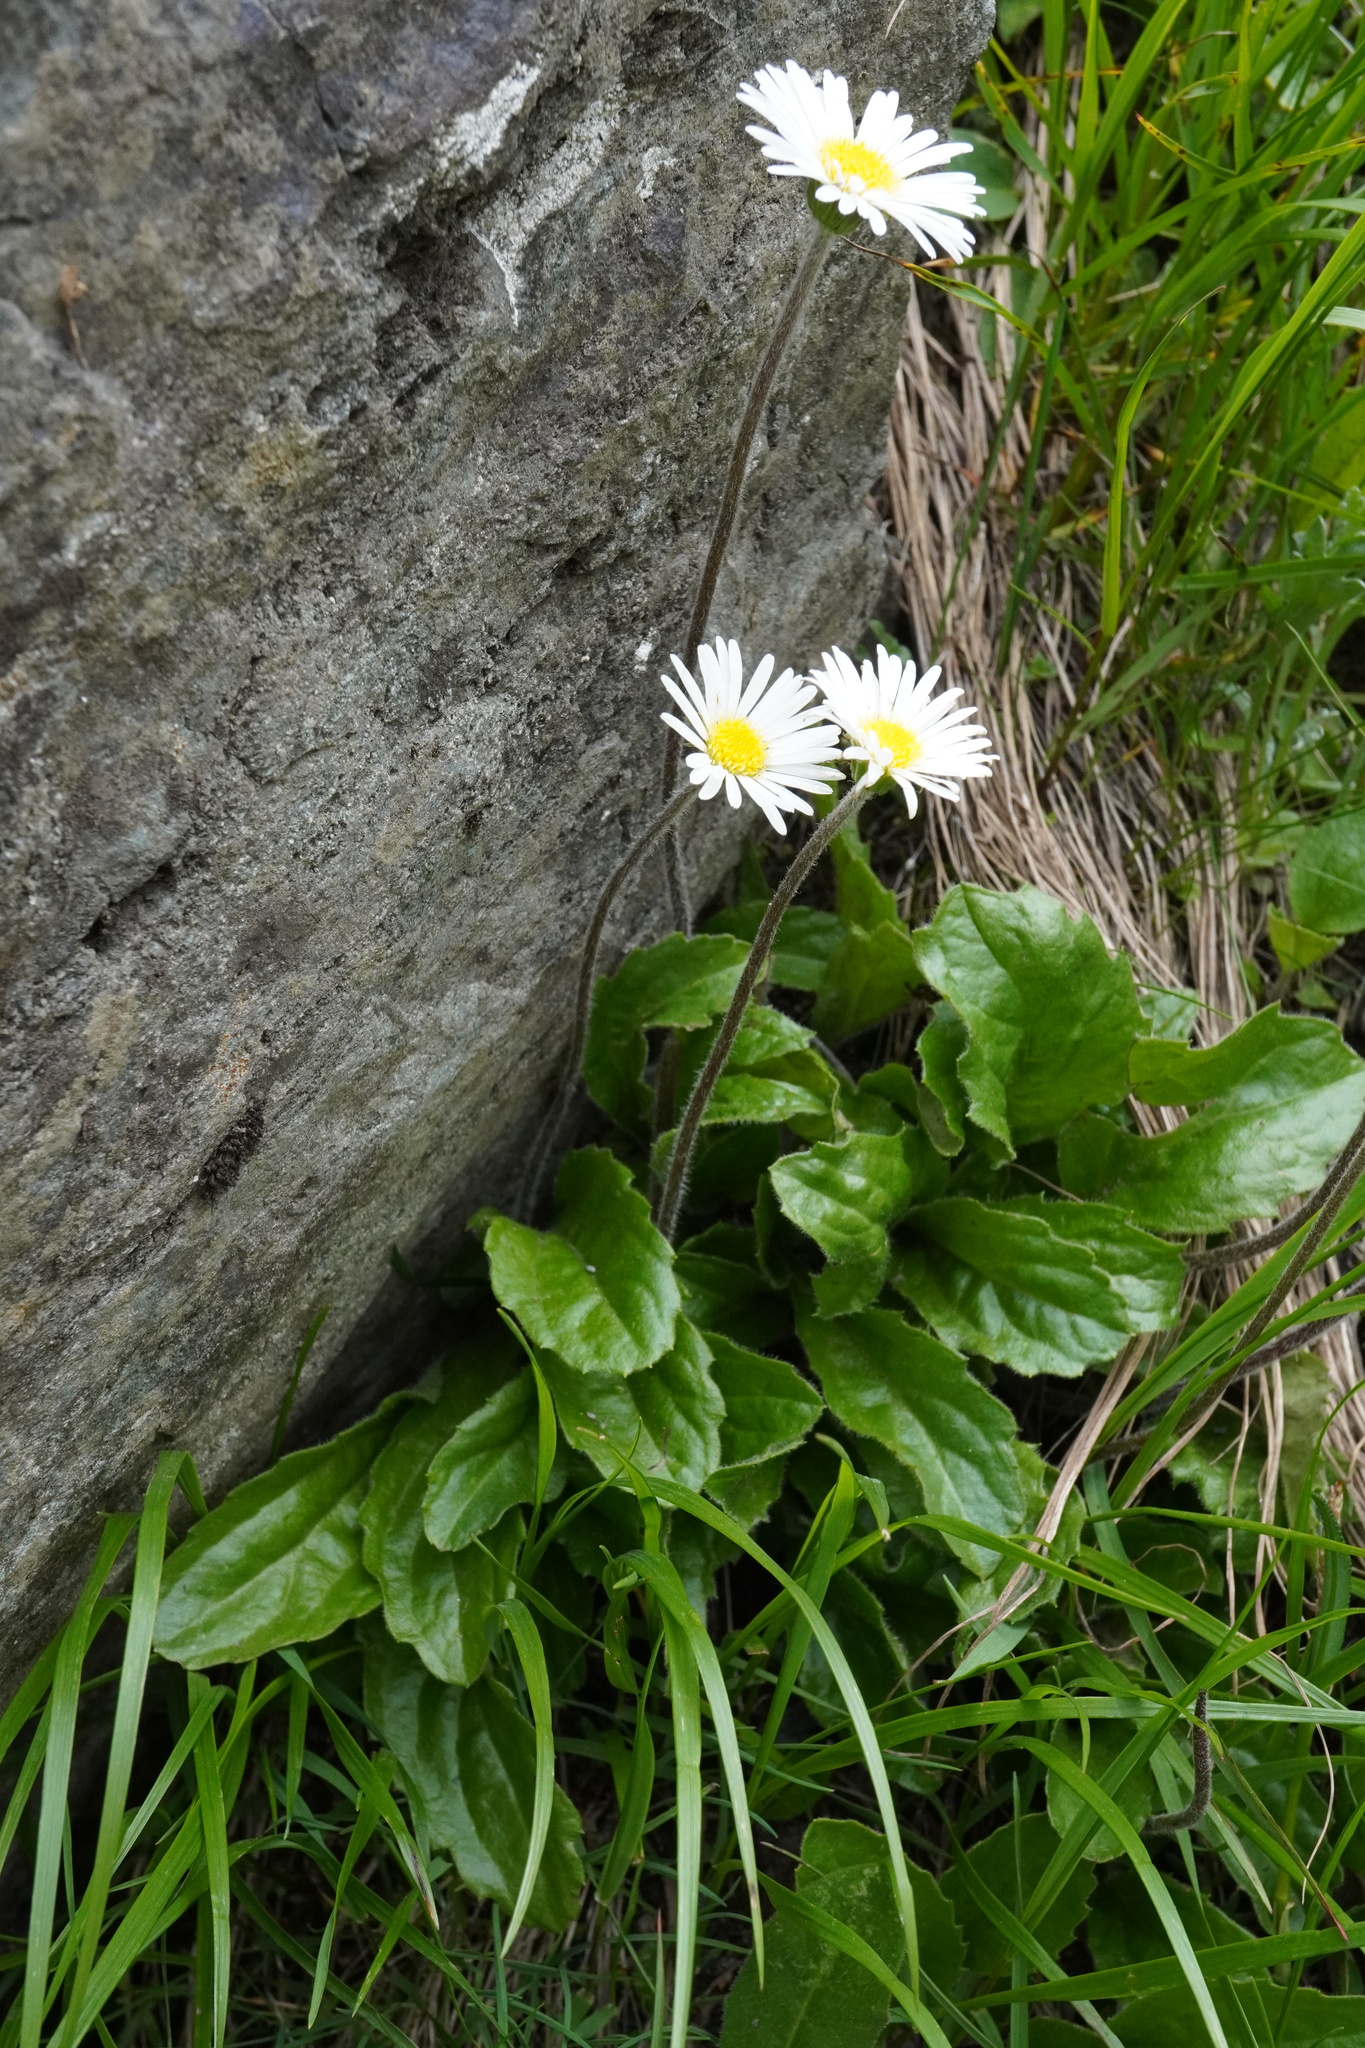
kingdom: Plantae
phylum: Tracheophyta
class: Magnoliopsida
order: Asterales
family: Asteraceae
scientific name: Asteraceae
